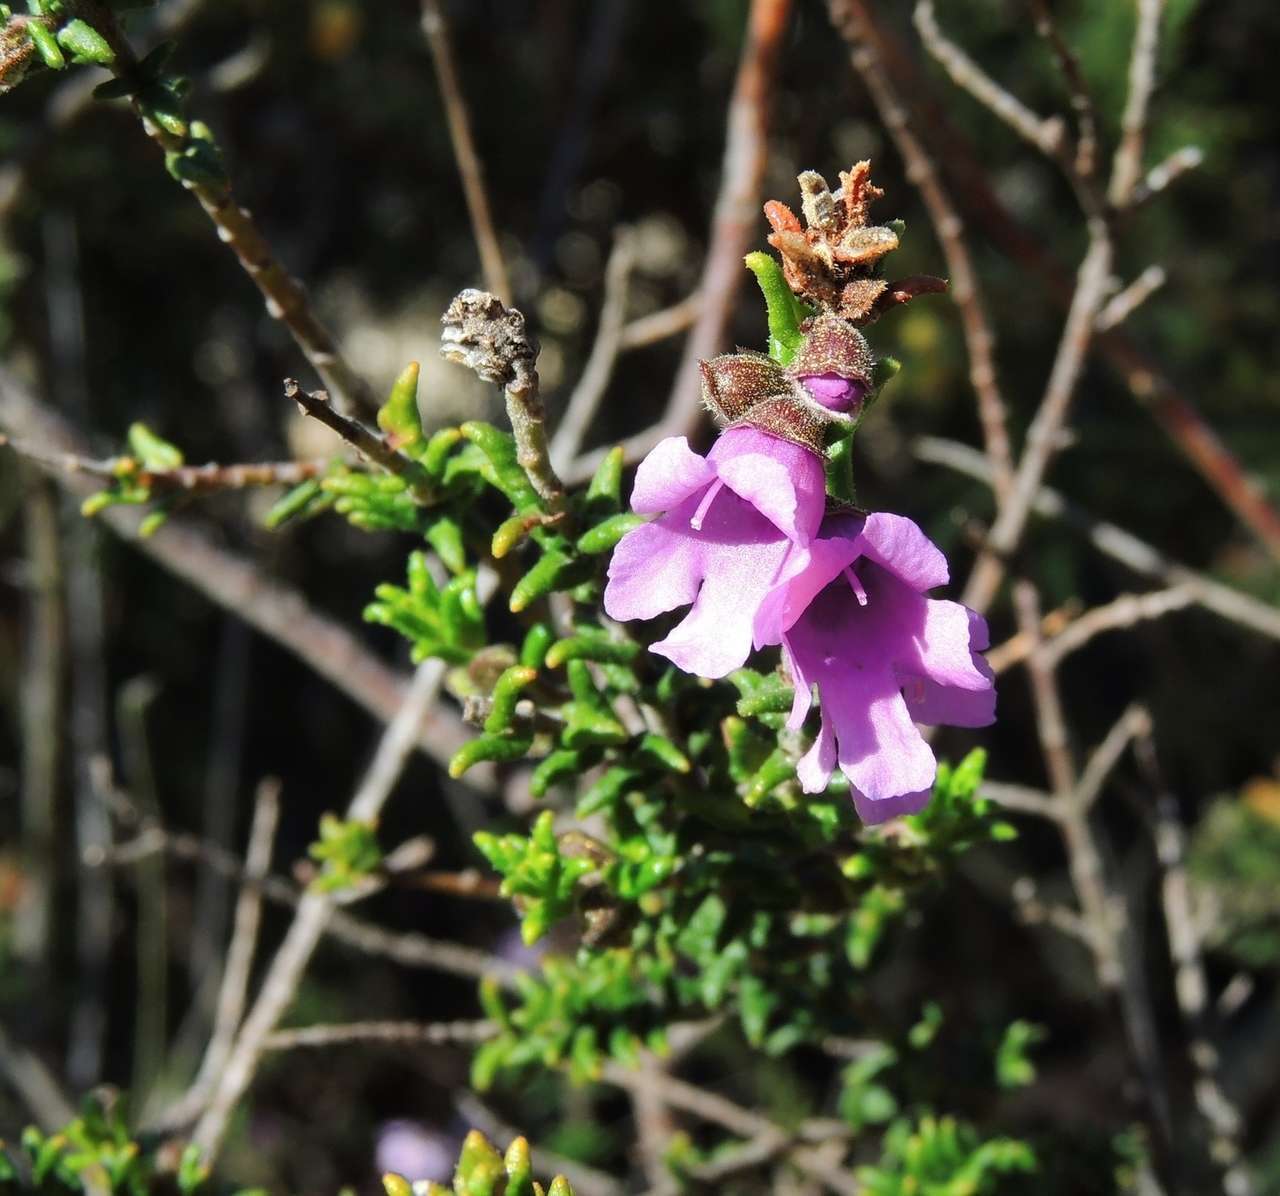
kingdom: Plantae
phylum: Tracheophyta
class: Magnoliopsida
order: Lamiales
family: Lamiaceae
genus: Prostanthera
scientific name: Prostanthera decussata
